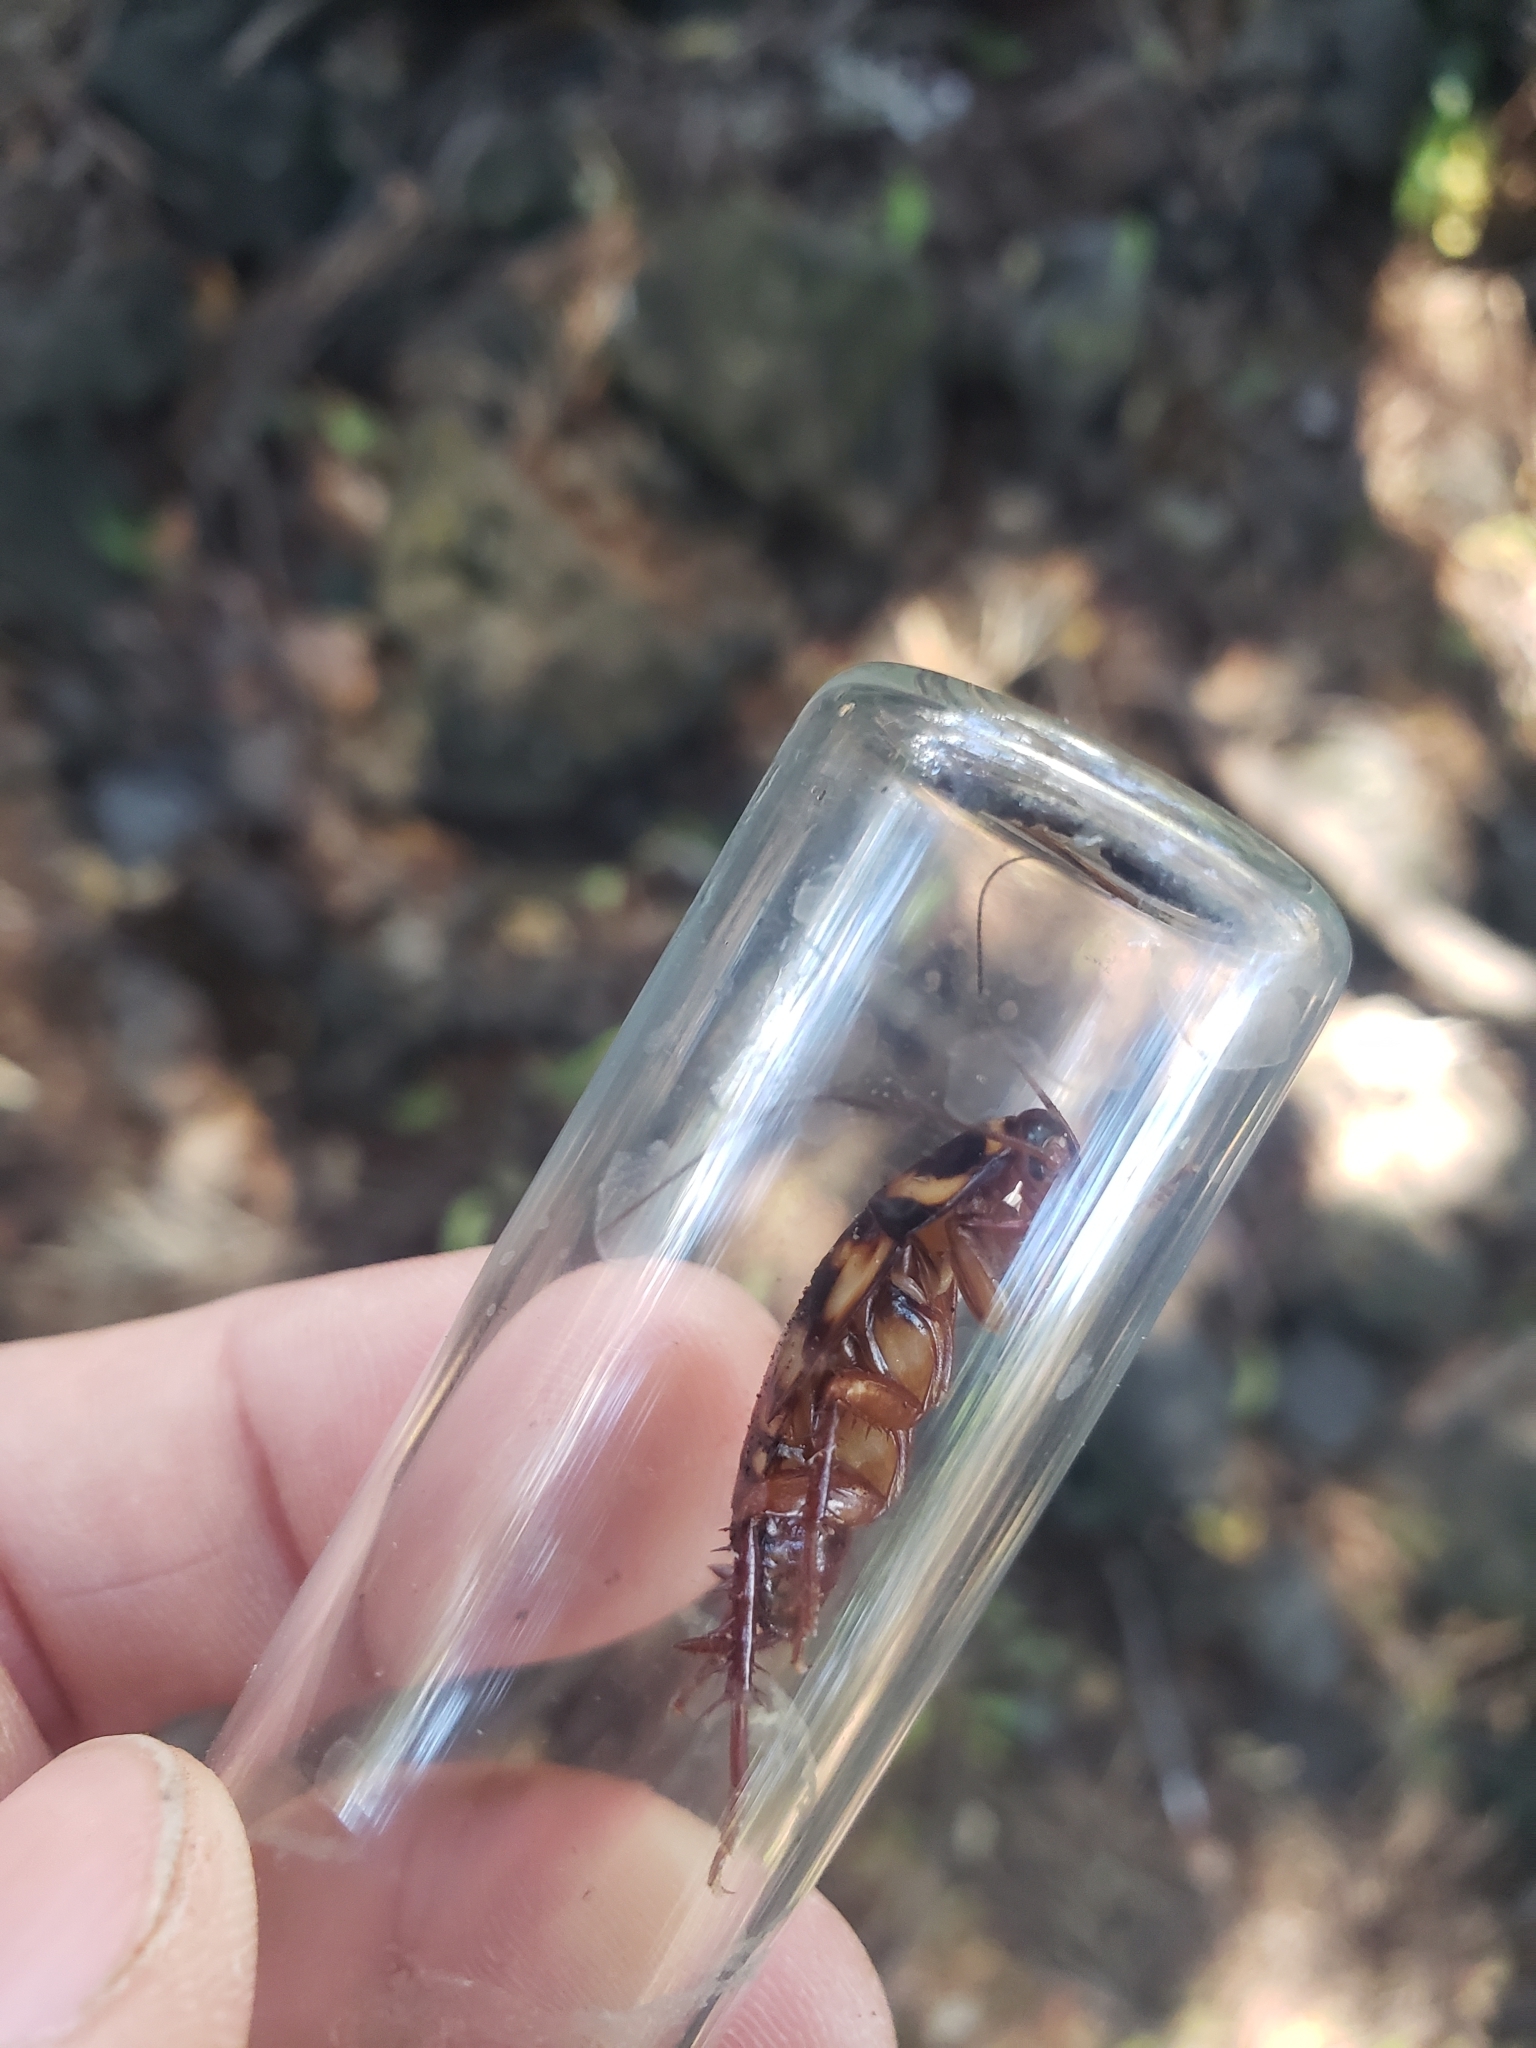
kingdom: Animalia
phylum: Arthropoda
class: Insecta
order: Blattodea
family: Blattidae
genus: Periplaneta
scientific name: Periplaneta australasiae
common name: Australian cockroach
